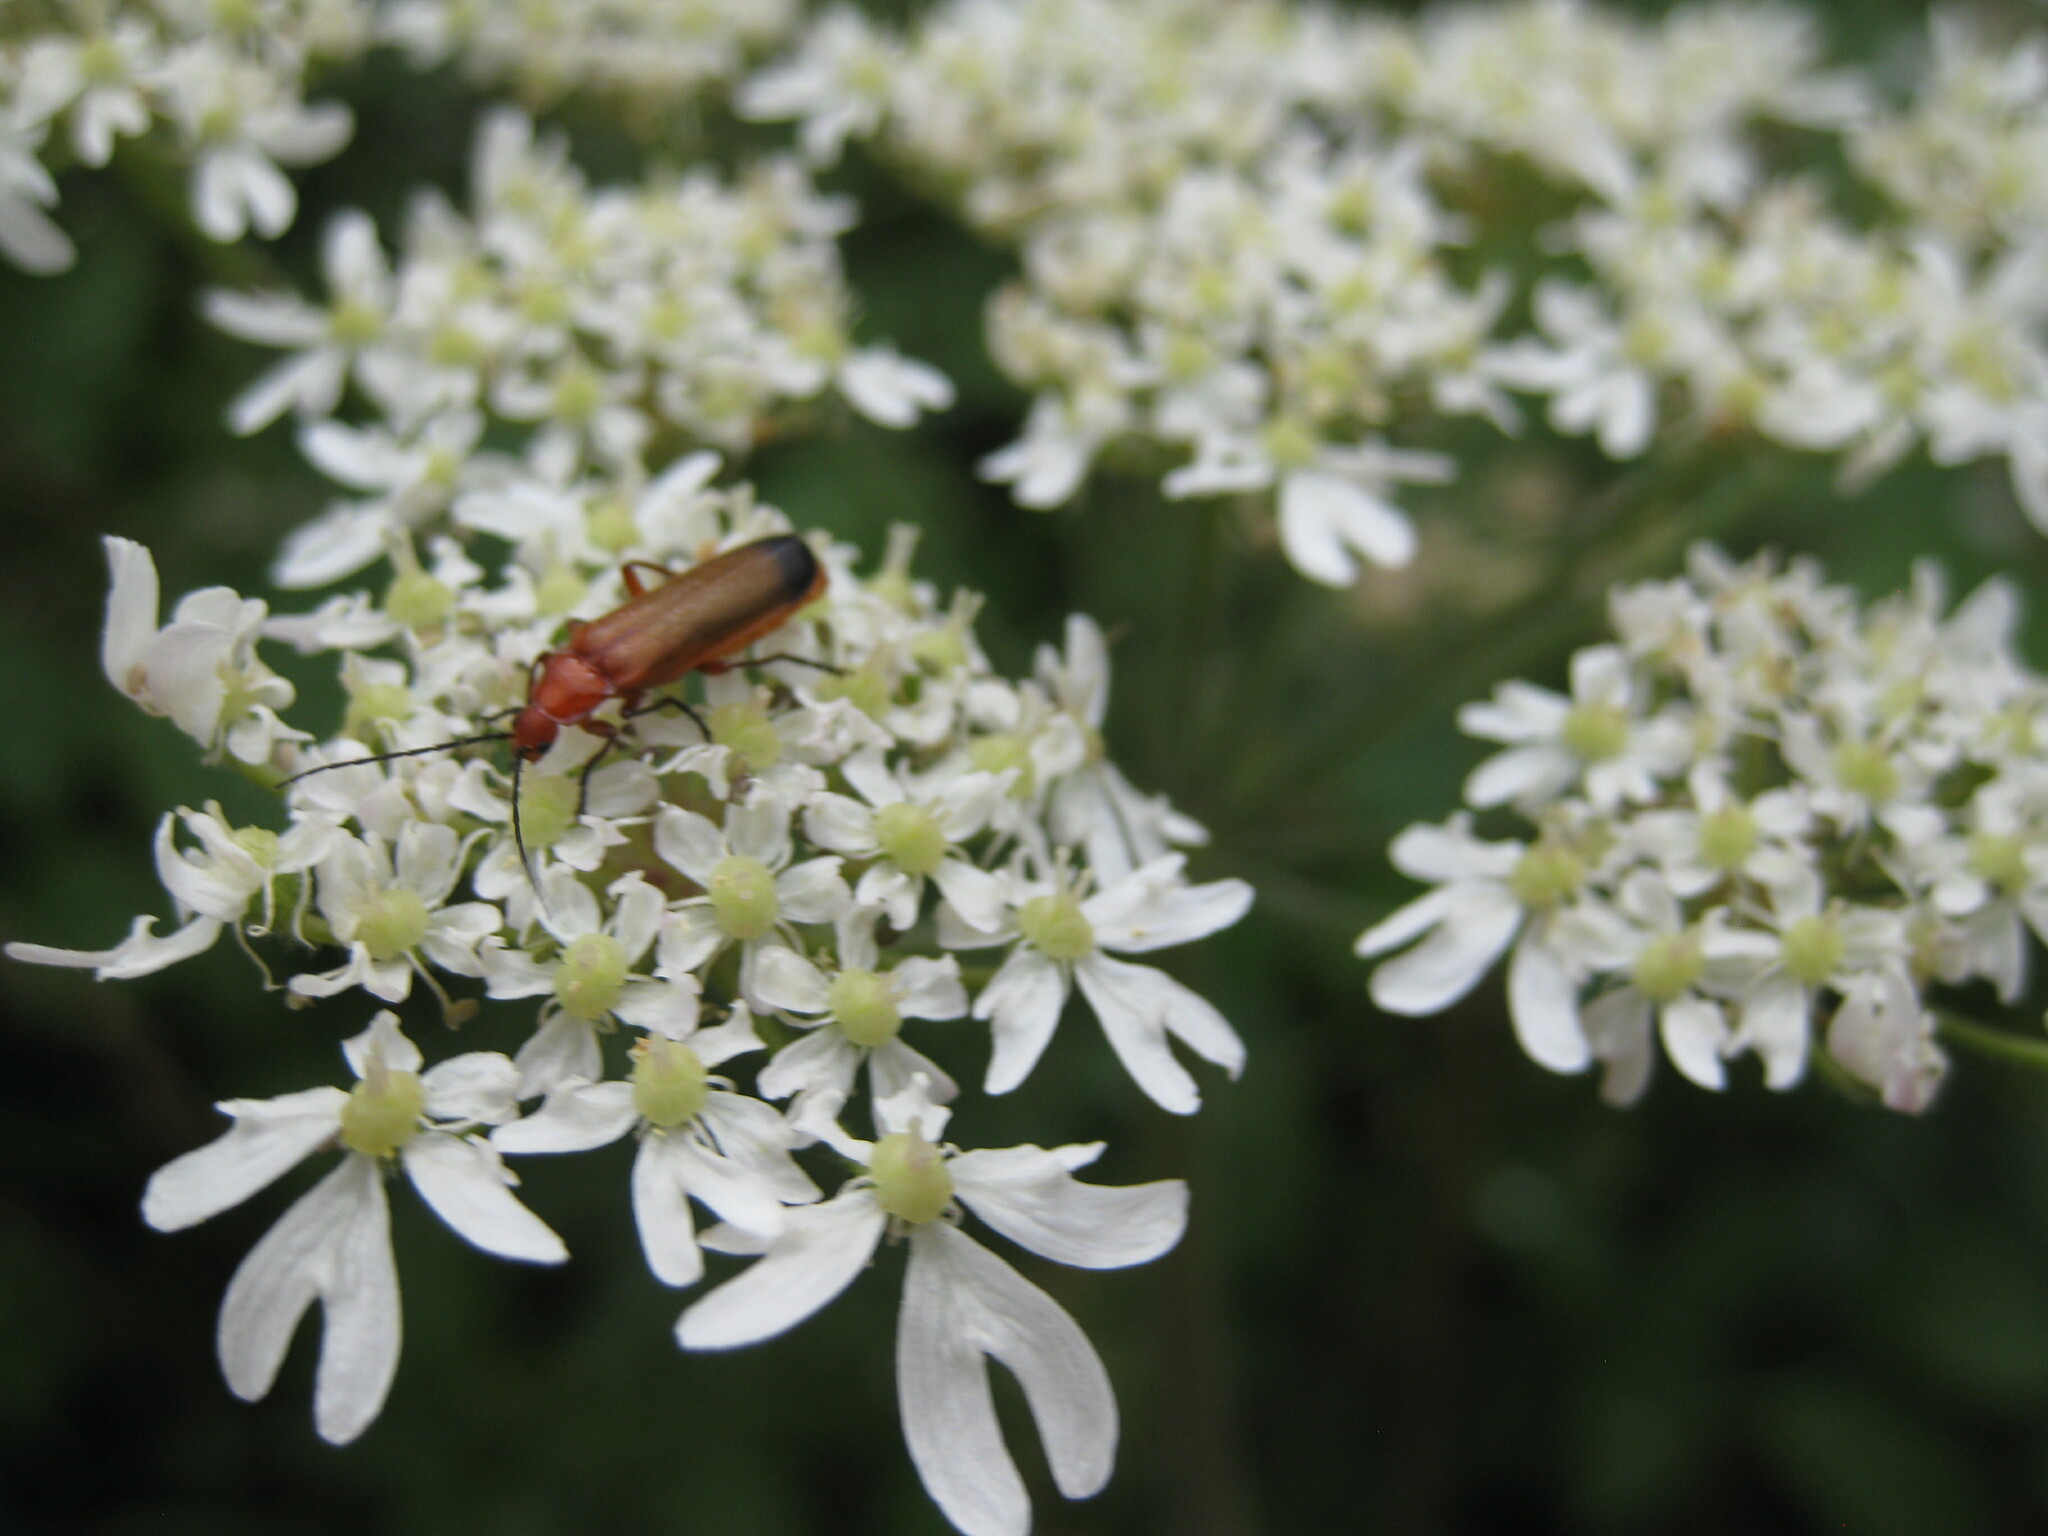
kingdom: Animalia
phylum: Arthropoda
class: Insecta
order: Coleoptera
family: Cantharidae
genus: Rhagonycha
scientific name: Rhagonycha fulva
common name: Common red soldier beetle
